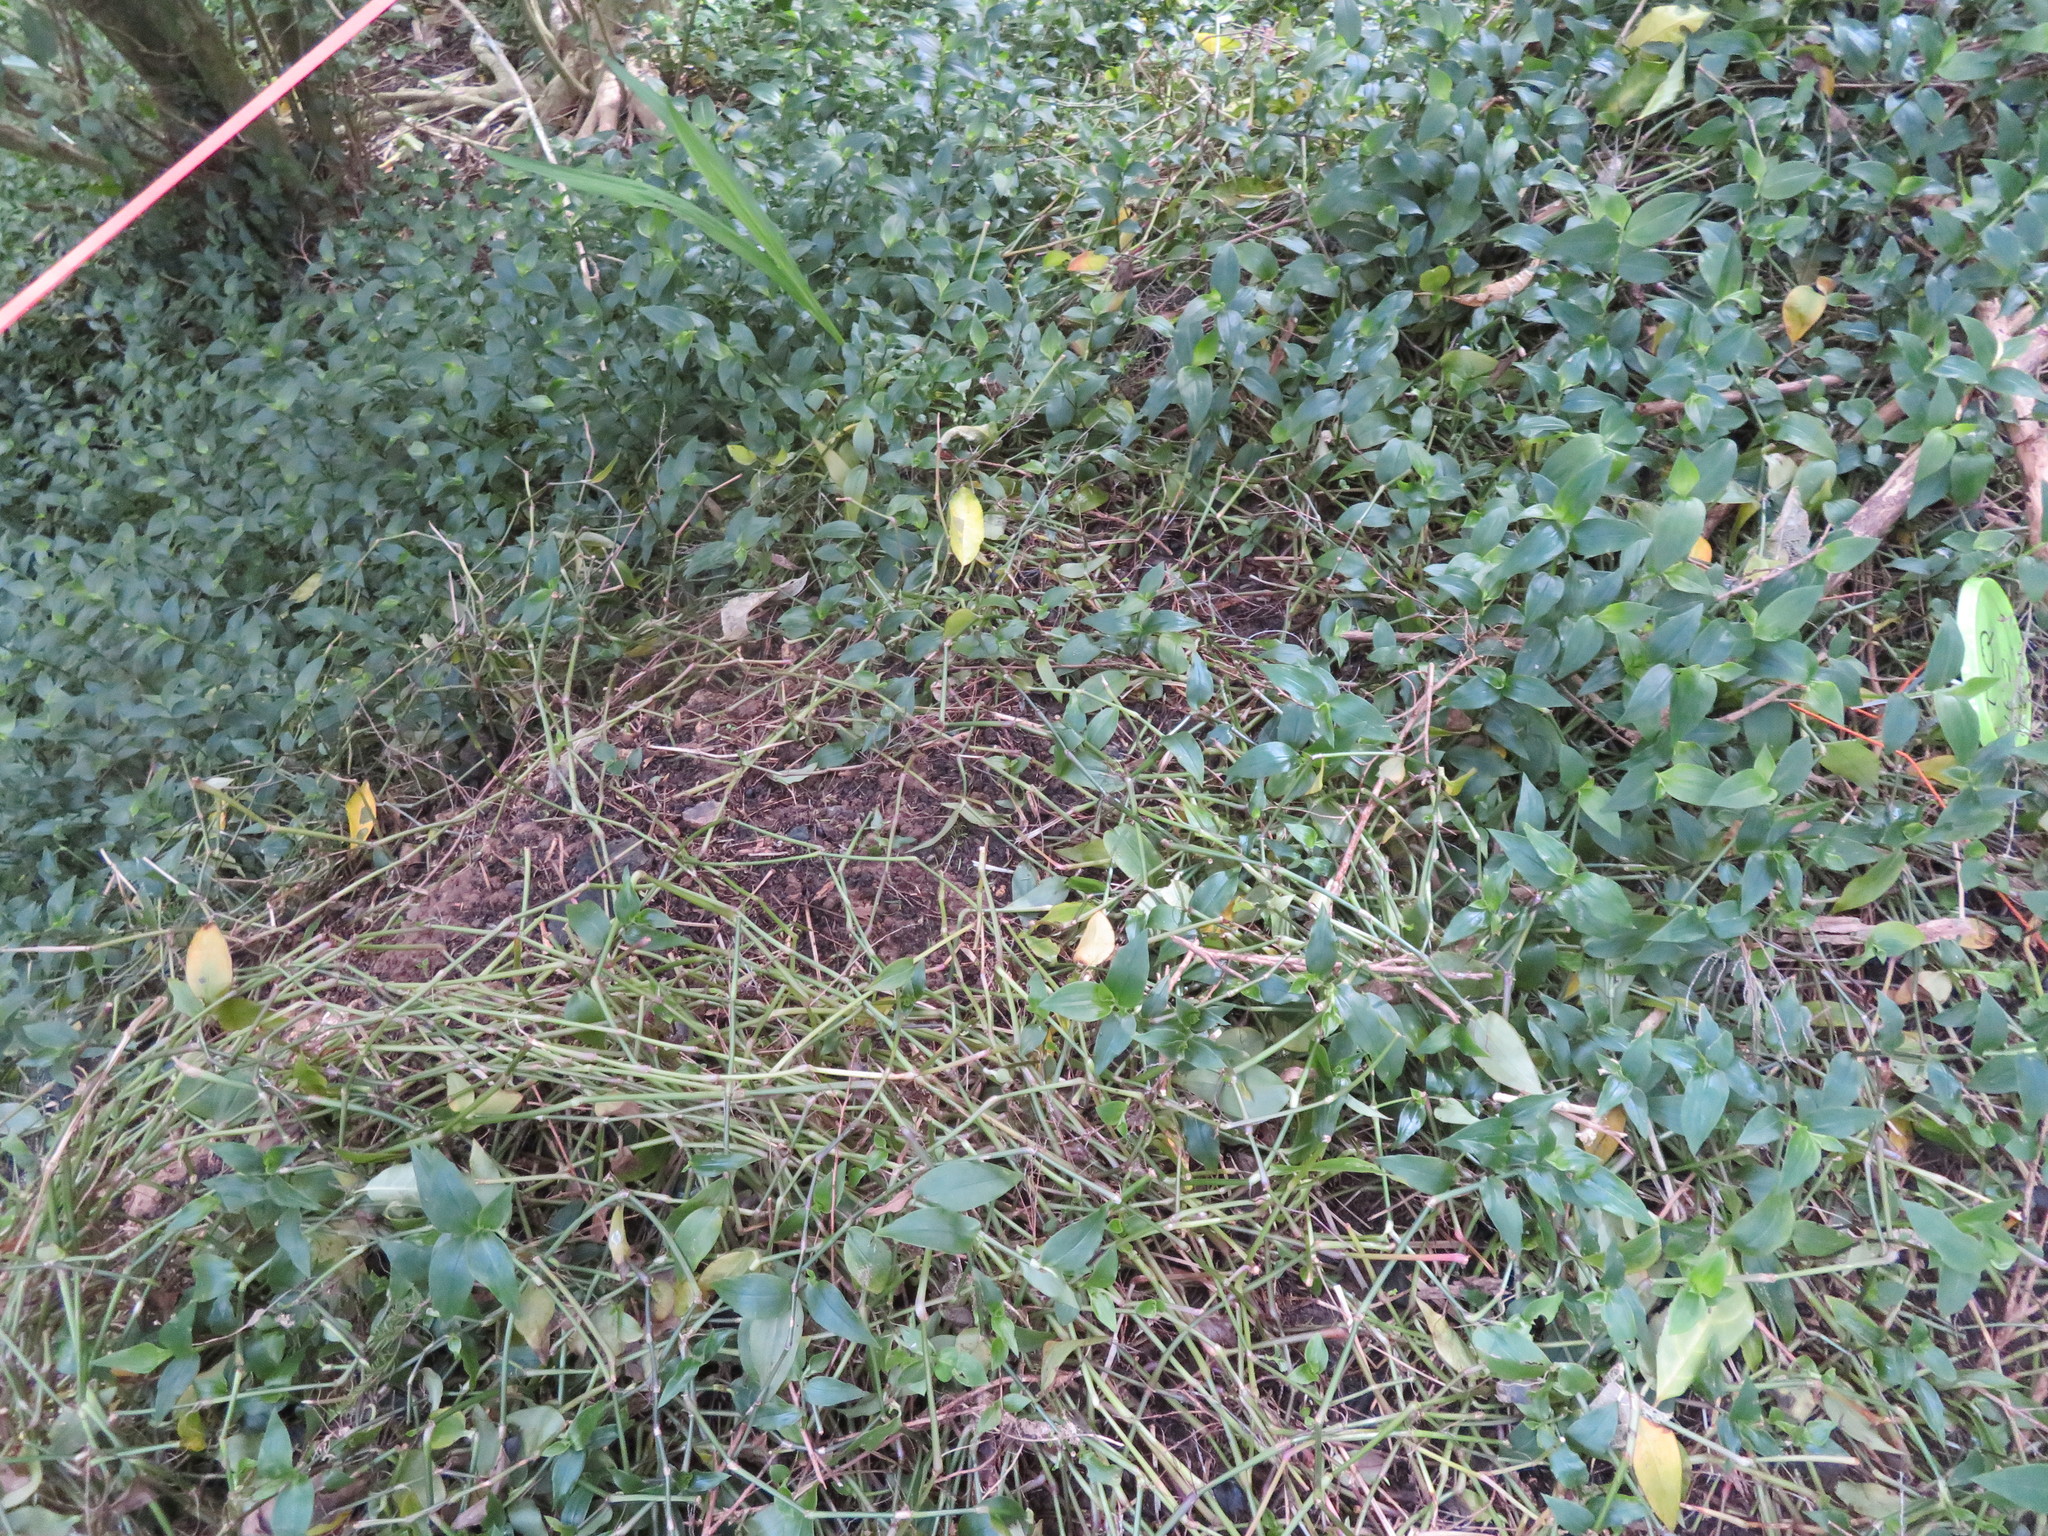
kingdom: Plantae
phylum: Tracheophyta
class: Liliopsida
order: Asparagales
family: Iridaceae
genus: Crocosmia
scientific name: Crocosmia crocosmiiflora
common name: Montbretia
